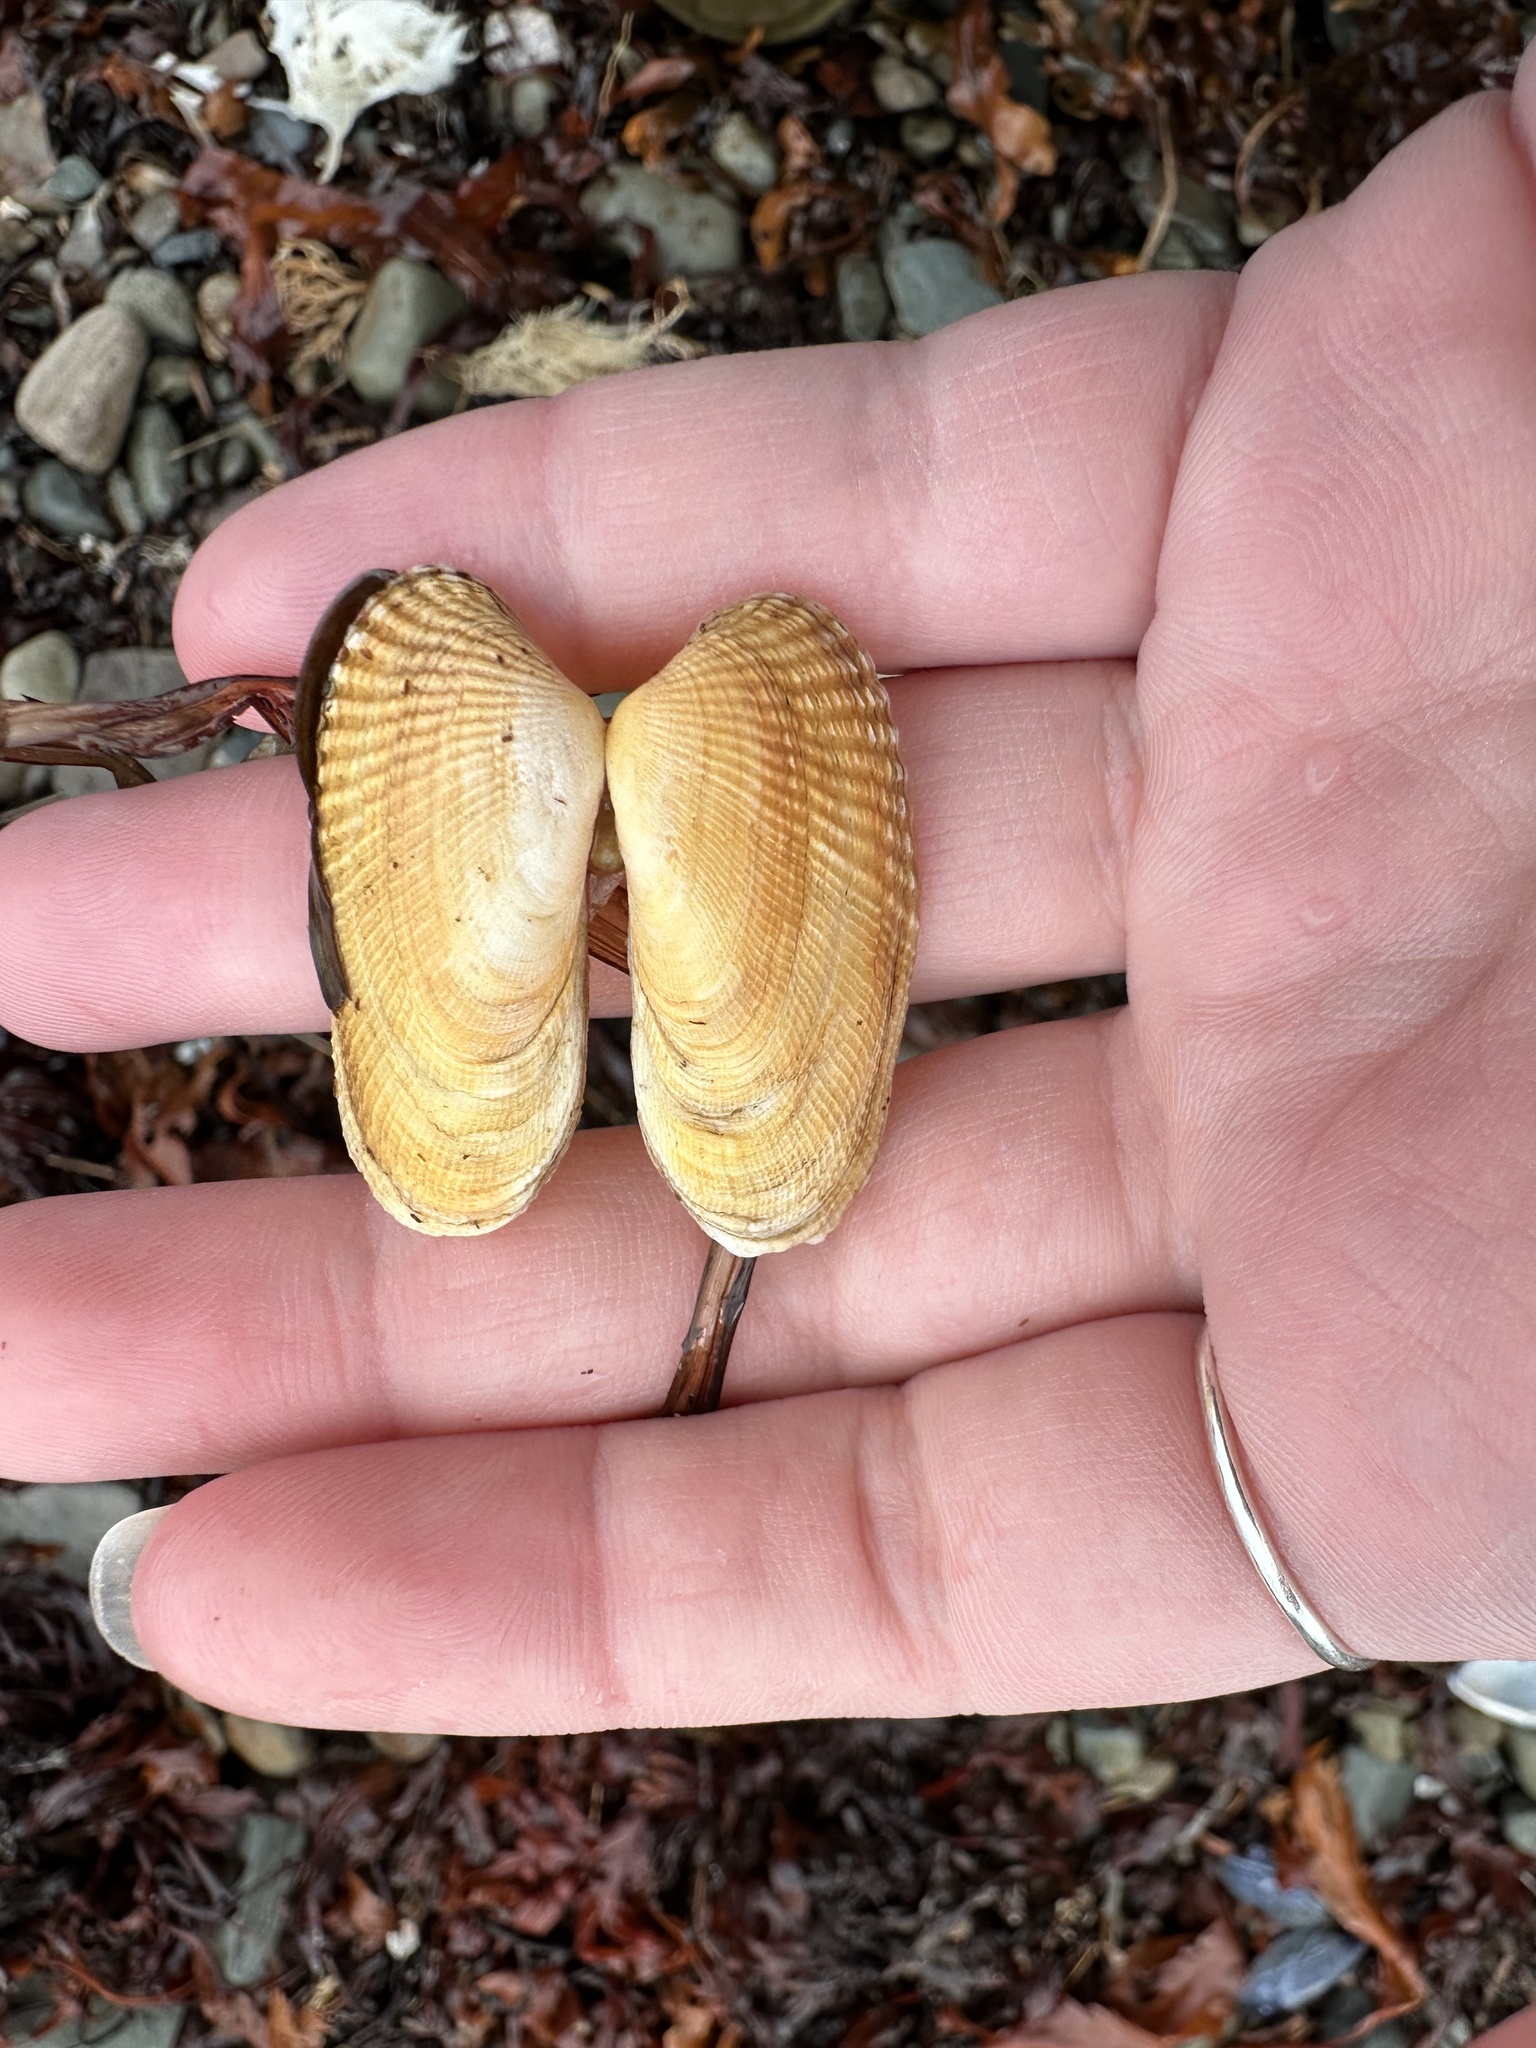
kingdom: Animalia
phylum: Mollusca
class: Bivalvia
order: Venerida
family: Veneridae
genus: Petricolaria
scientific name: Petricolaria pholadiformis
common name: American piddock
